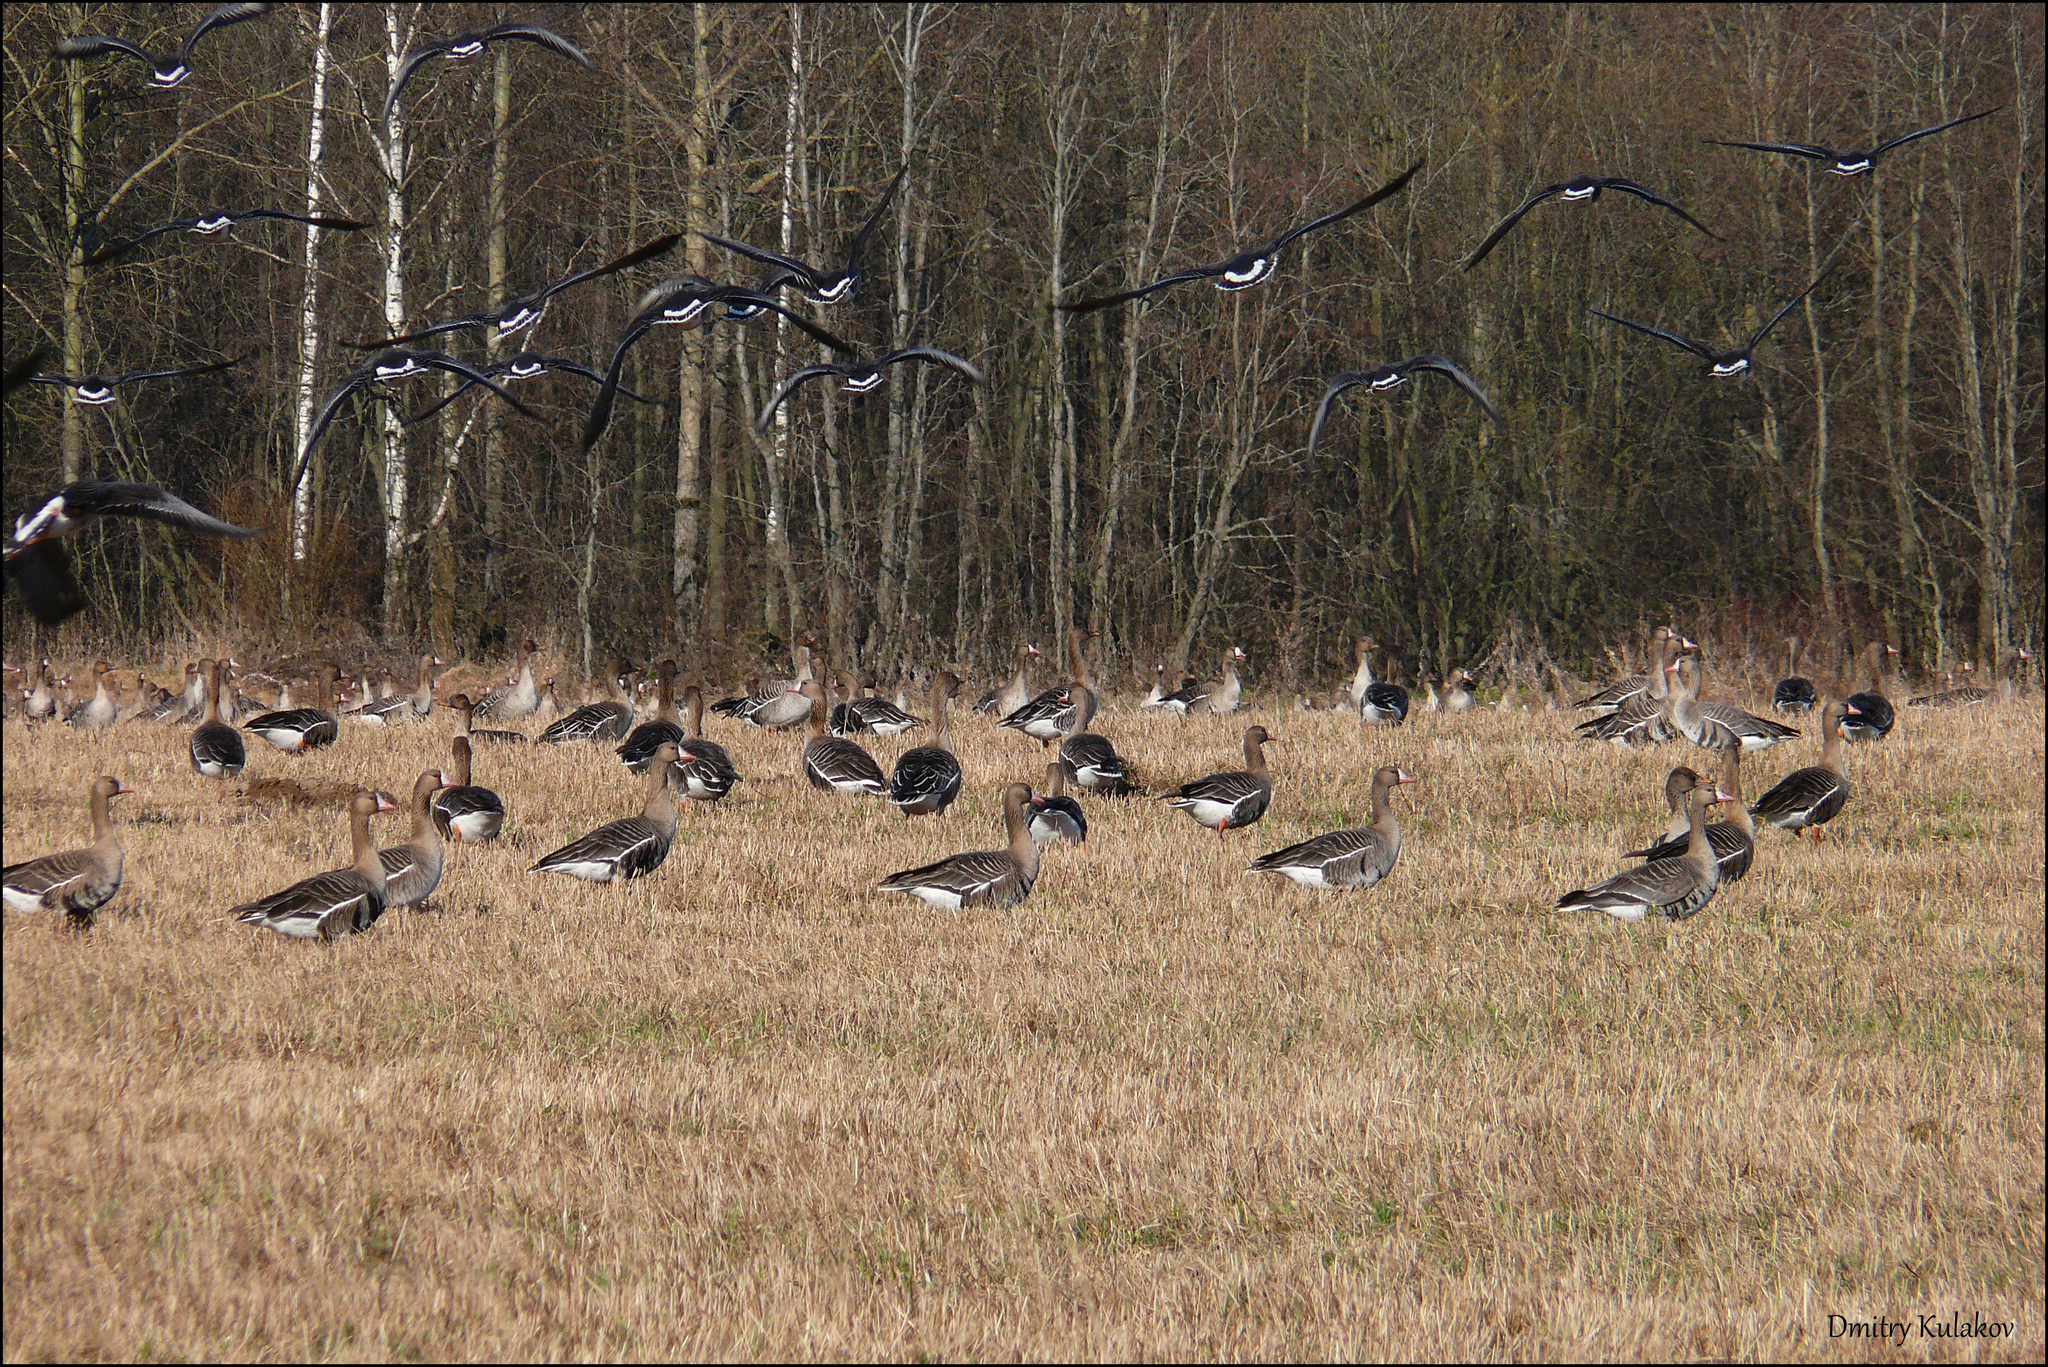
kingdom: Animalia
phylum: Chordata
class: Aves
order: Anseriformes
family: Anatidae
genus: Anser
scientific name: Anser albifrons
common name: Greater white-fronted goose
